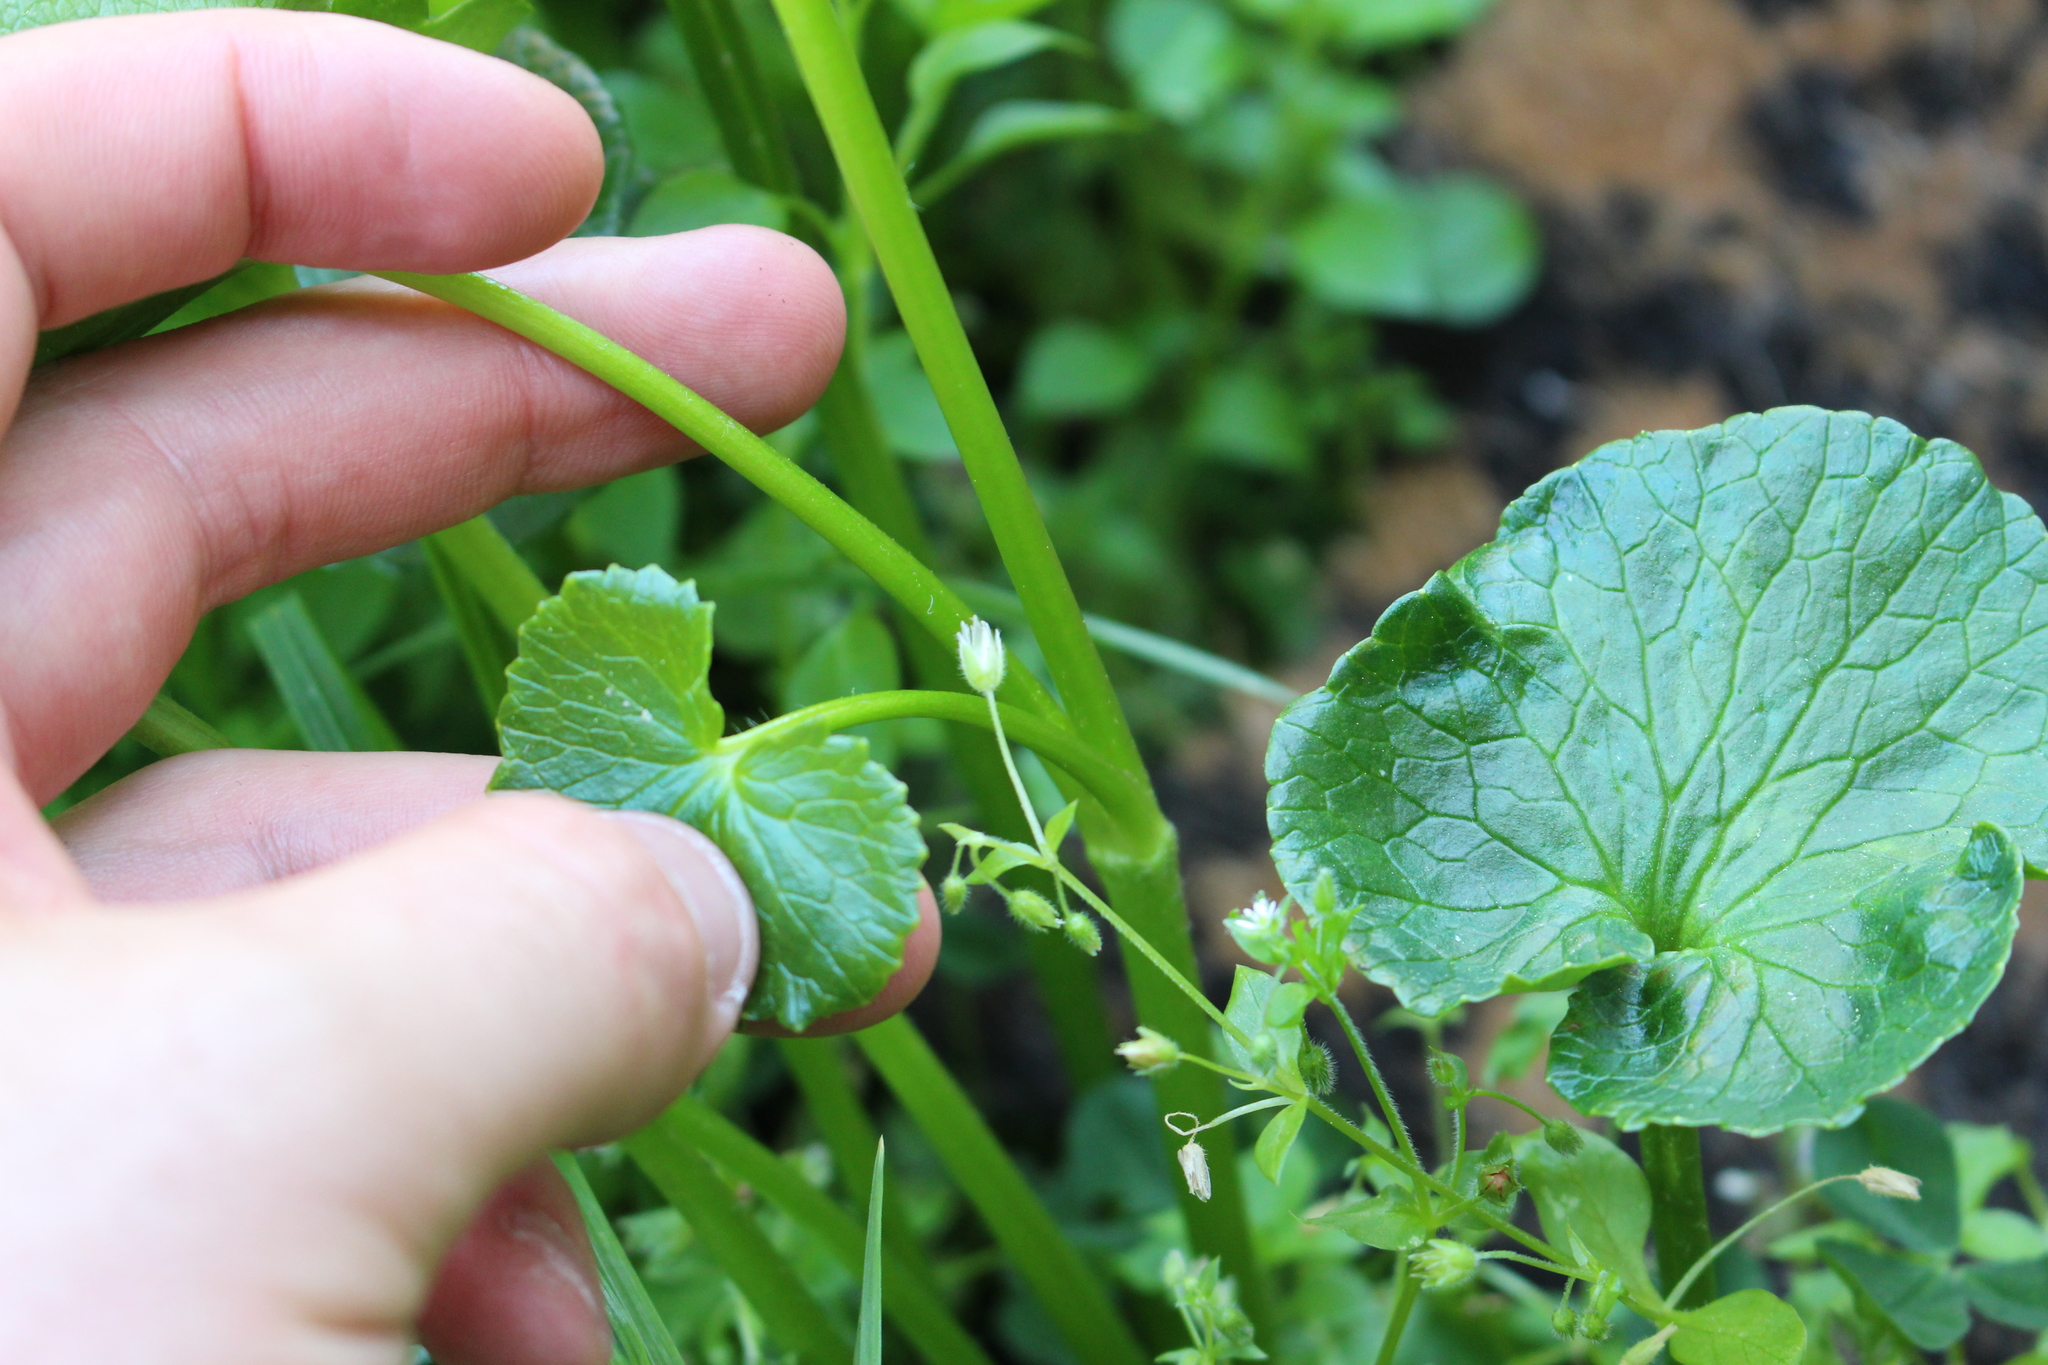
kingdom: Plantae
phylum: Tracheophyta
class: Magnoliopsida
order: Ranunculales
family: Ranunculaceae
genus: Ficaria
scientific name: Ficaria verna
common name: Lesser celandine
